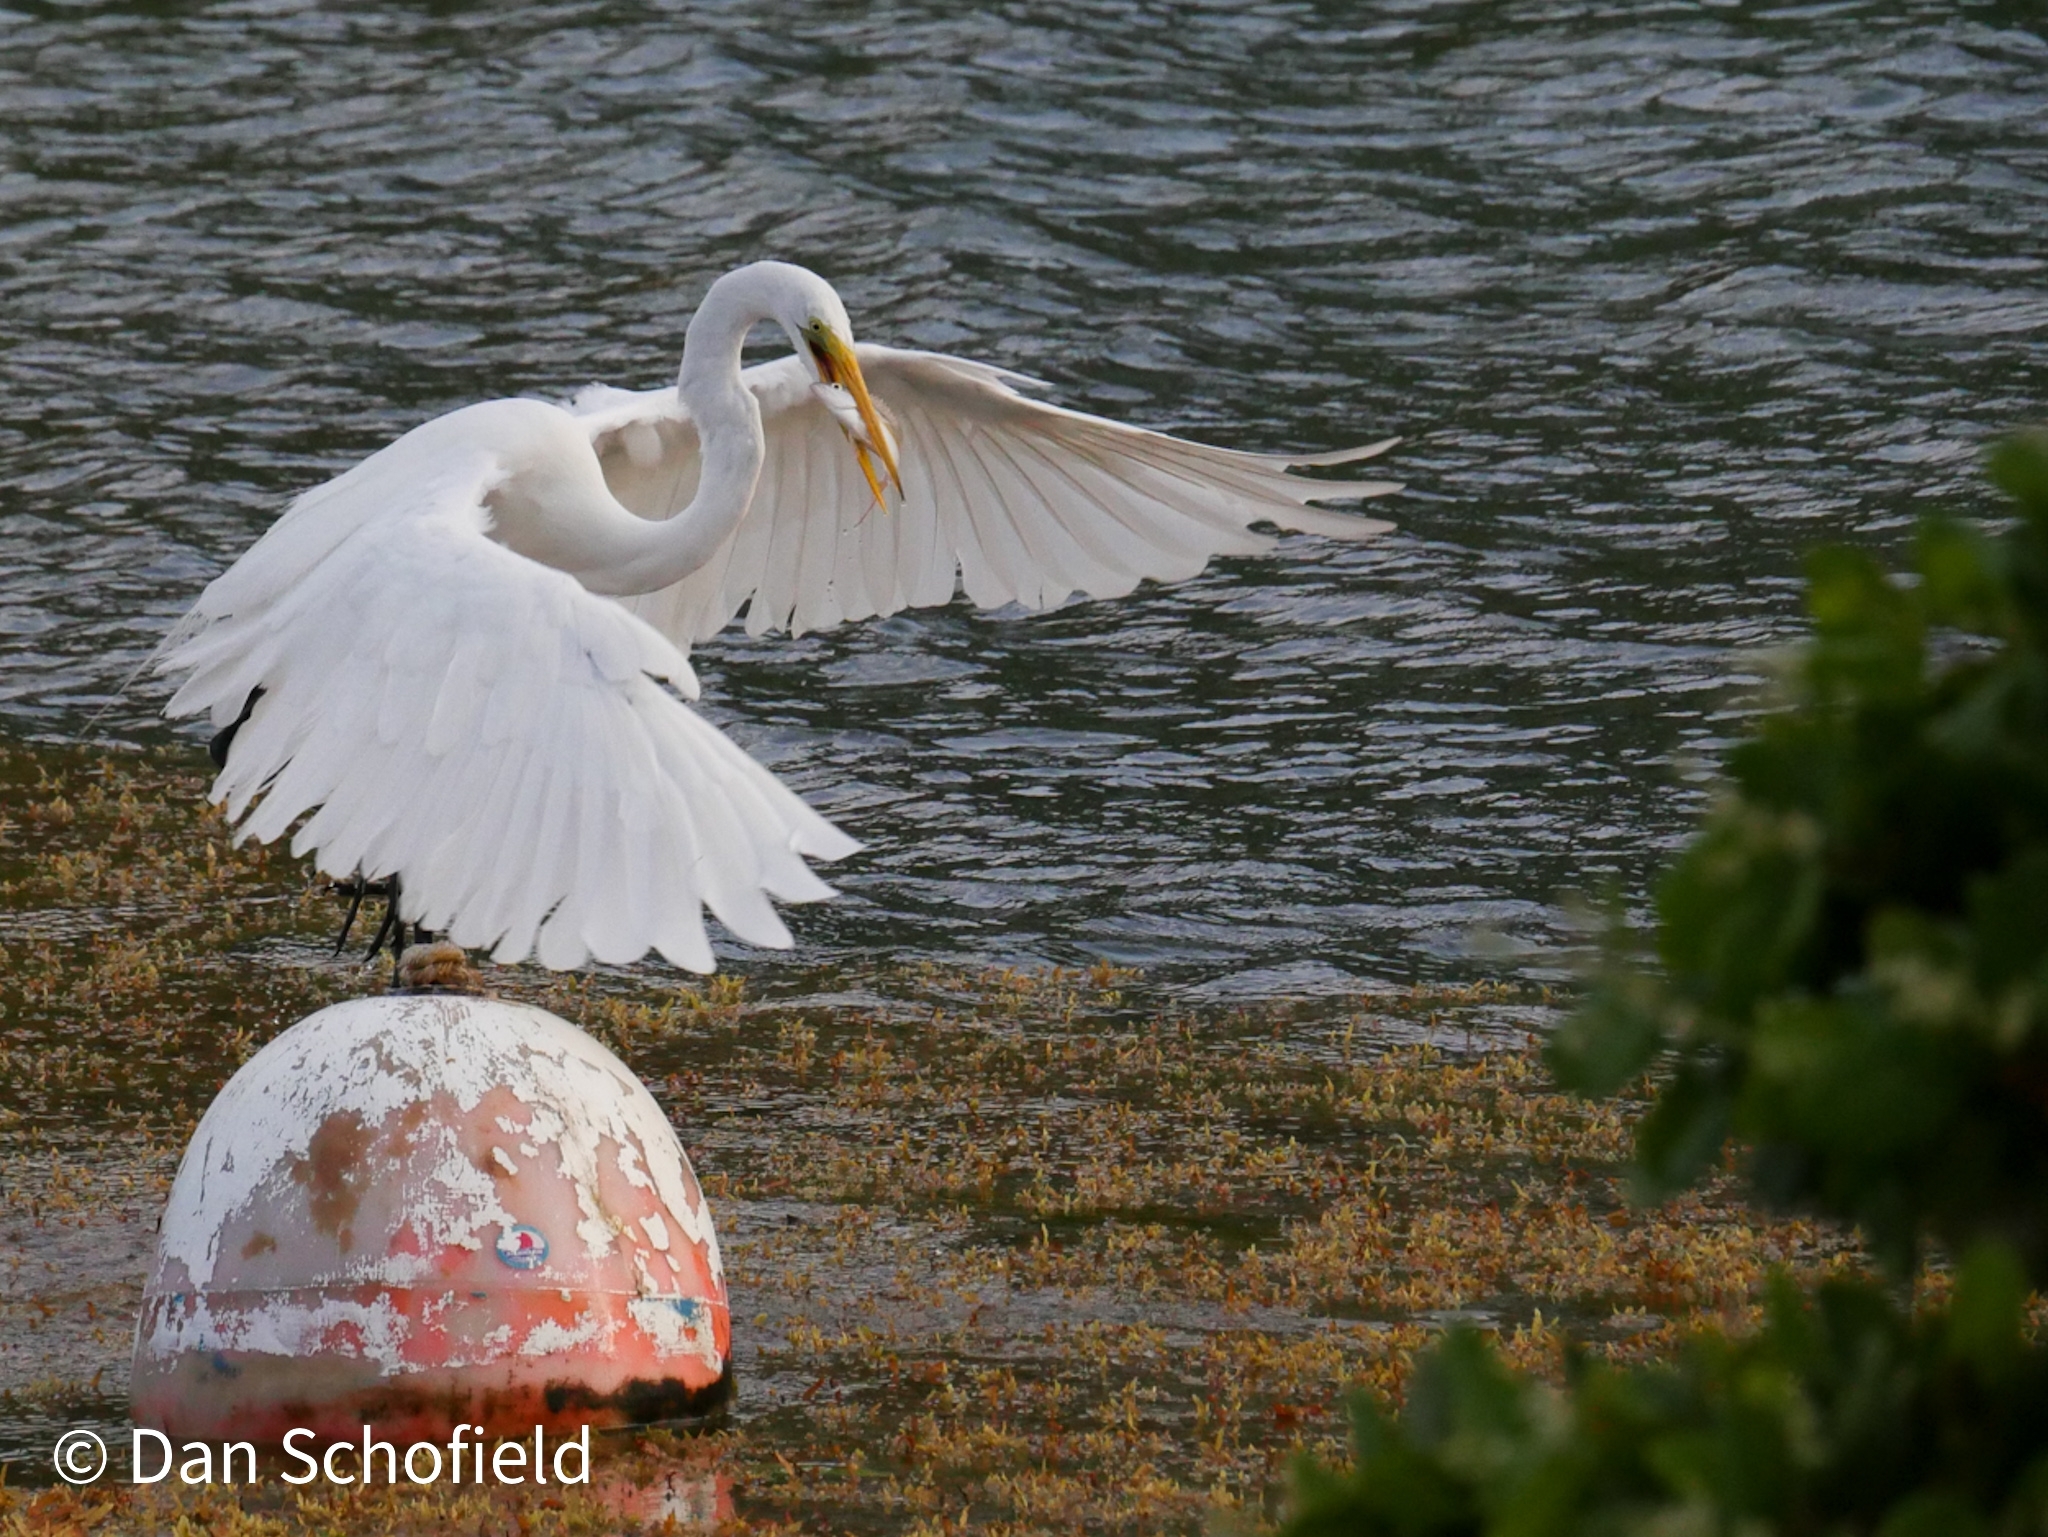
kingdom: Animalia
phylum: Chordata
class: Aves
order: Pelecaniformes
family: Ardeidae
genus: Ardea
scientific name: Ardea alba
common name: Great egret
